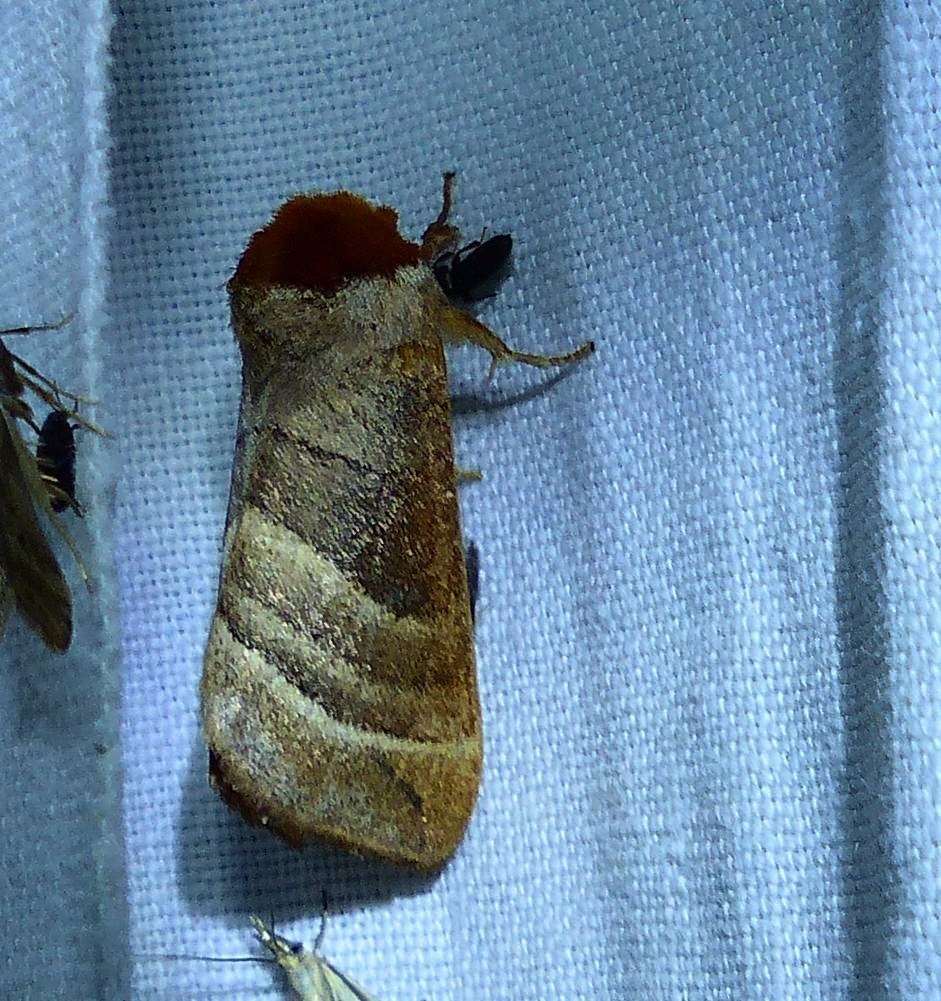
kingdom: Animalia
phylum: Arthropoda
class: Insecta
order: Lepidoptera
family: Notodontidae
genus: Datana
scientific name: Datana integerrima
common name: Walnut caterpillar
